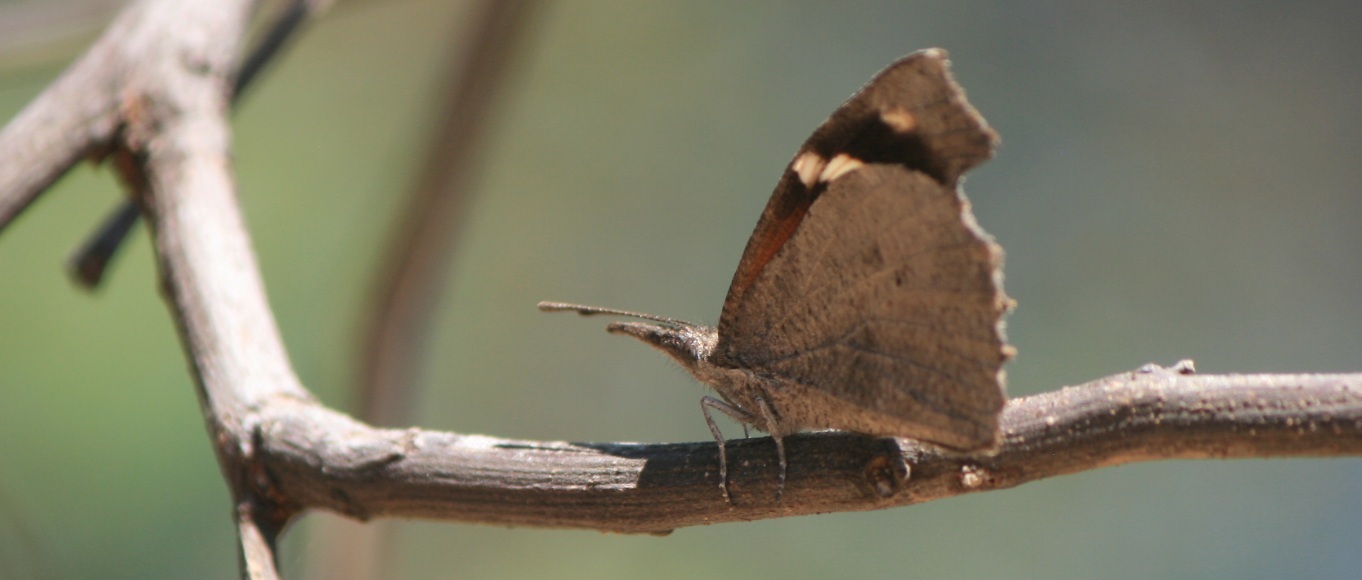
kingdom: Animalia
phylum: Arthropoda
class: Insecta
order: Lepidoptera
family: Nymphalidae
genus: Libytheana
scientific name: Libytheana carinenta
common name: American snout
